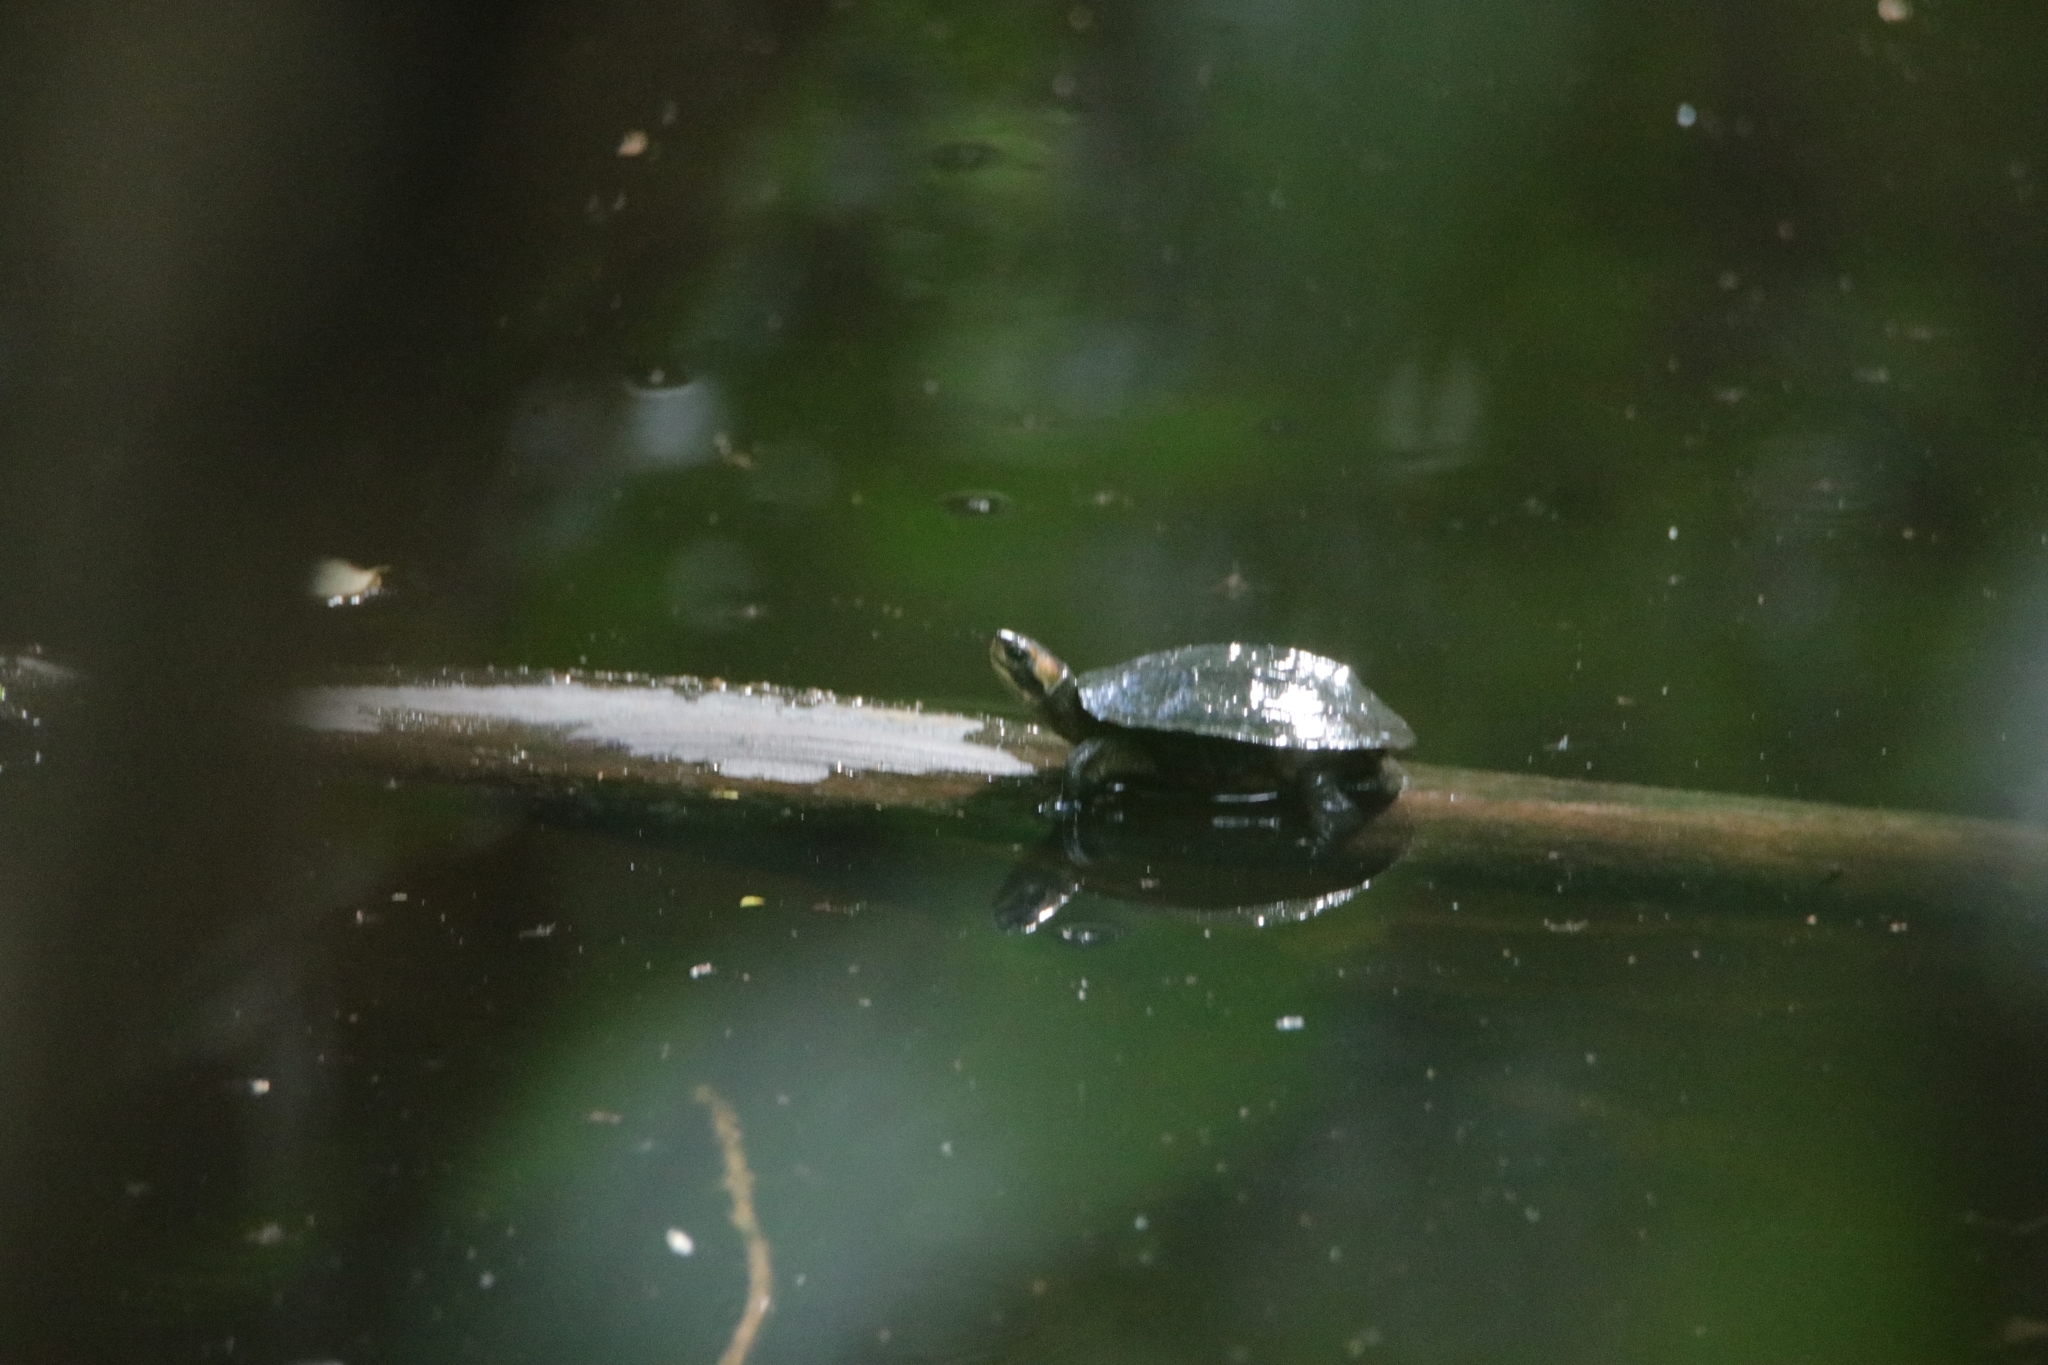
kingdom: Animalia
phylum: Chordata
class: Testudines
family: Geoemydidae
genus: Melanochelys
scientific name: Melanochelys trijuga
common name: Indian black turtle
